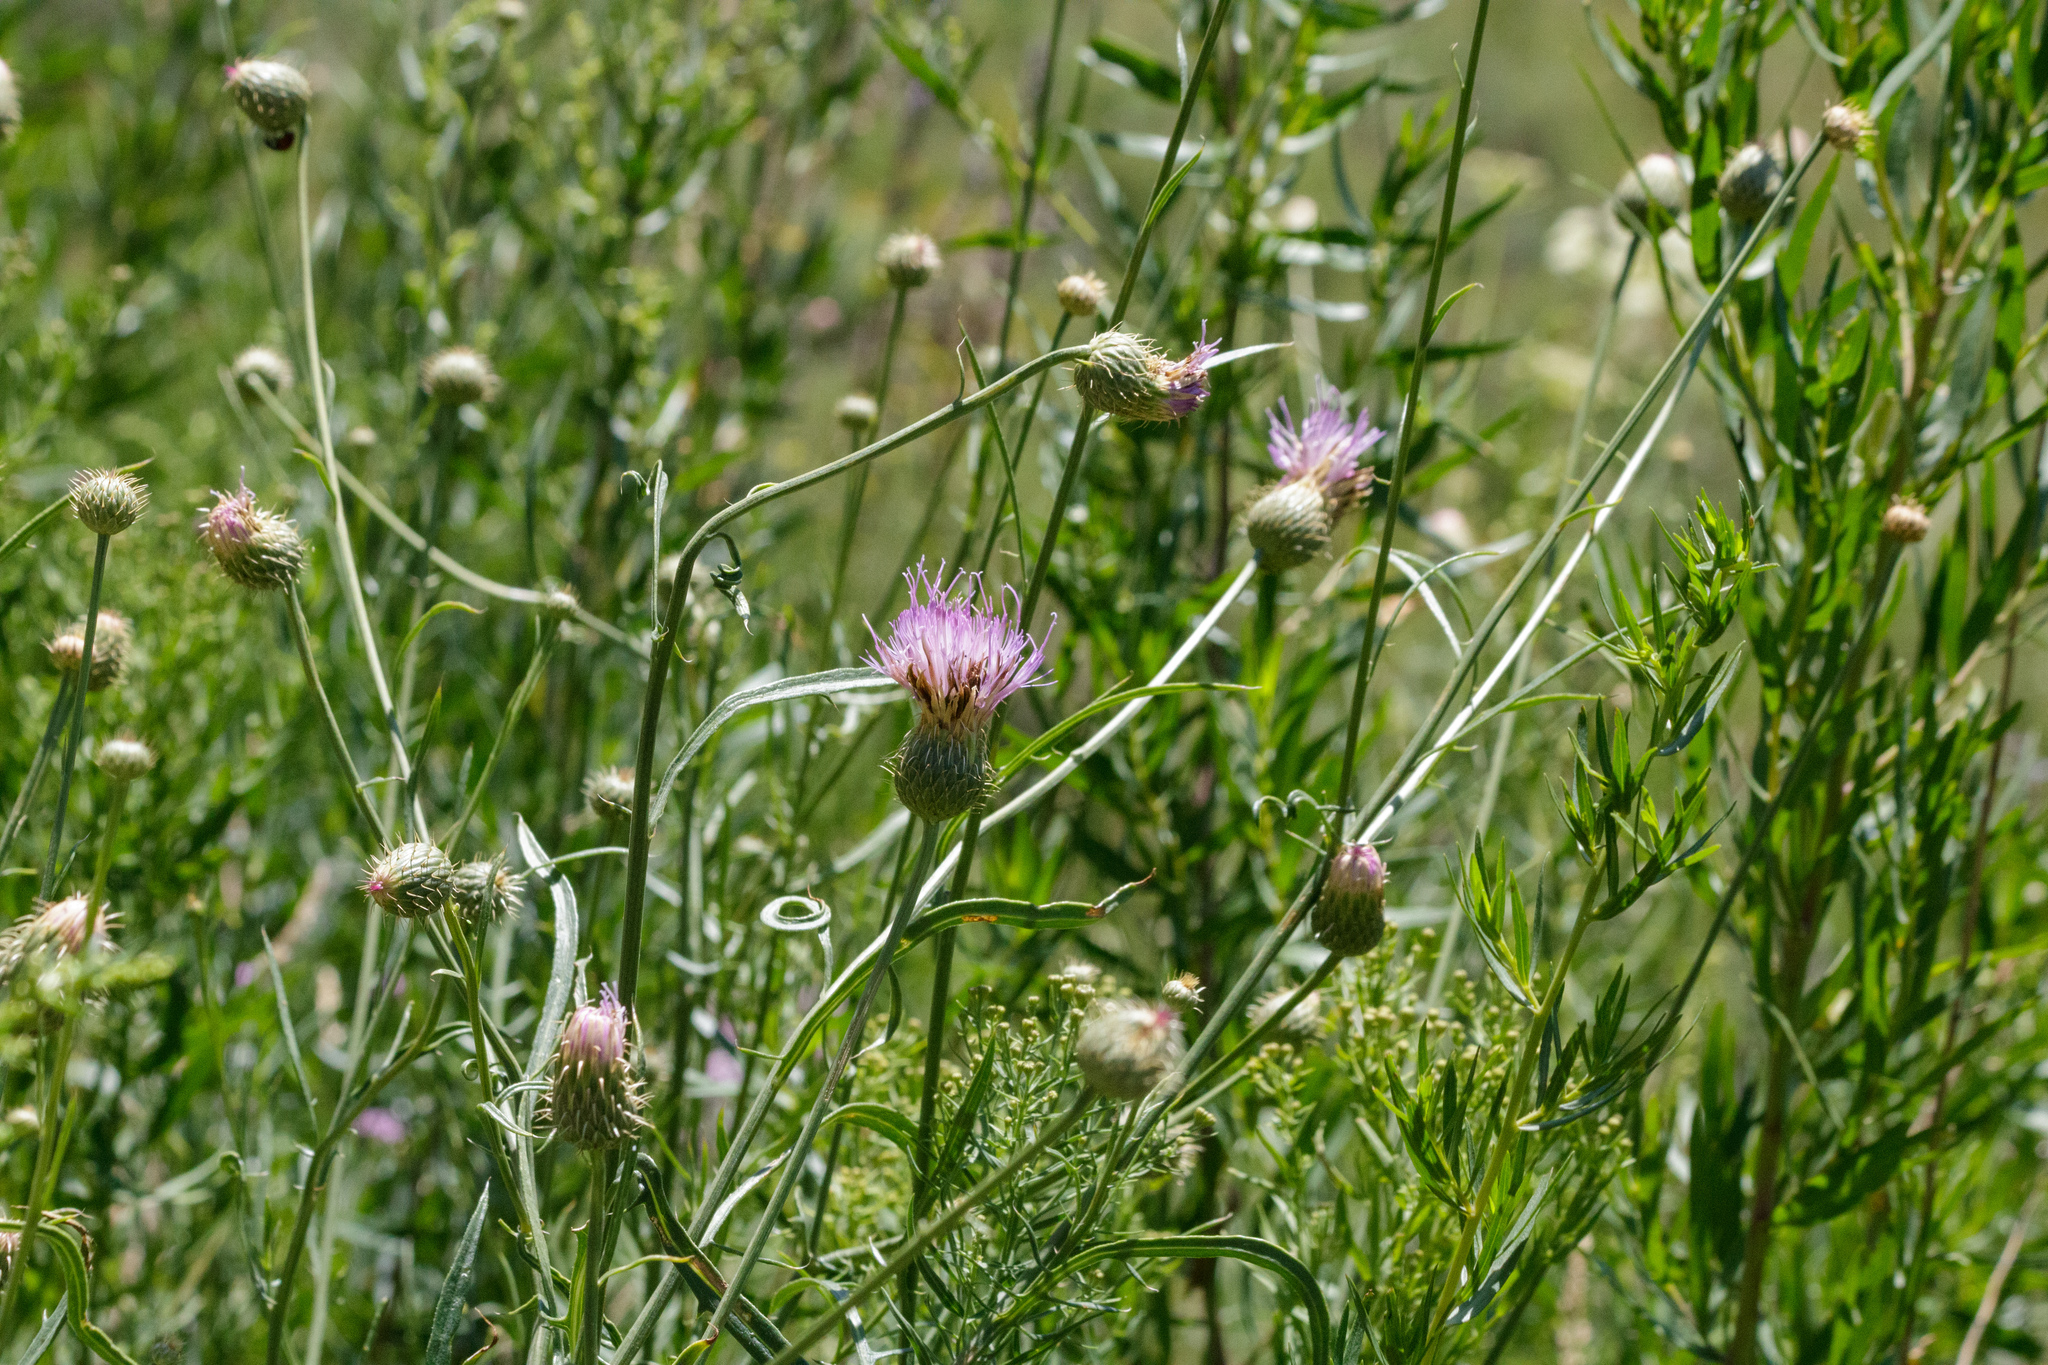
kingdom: Plantae
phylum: Tracheophyta
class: Magnoliopsida
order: Asterales
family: Asteraceae
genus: Cirsium
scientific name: Cirsium arvense
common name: Creeping thistle
